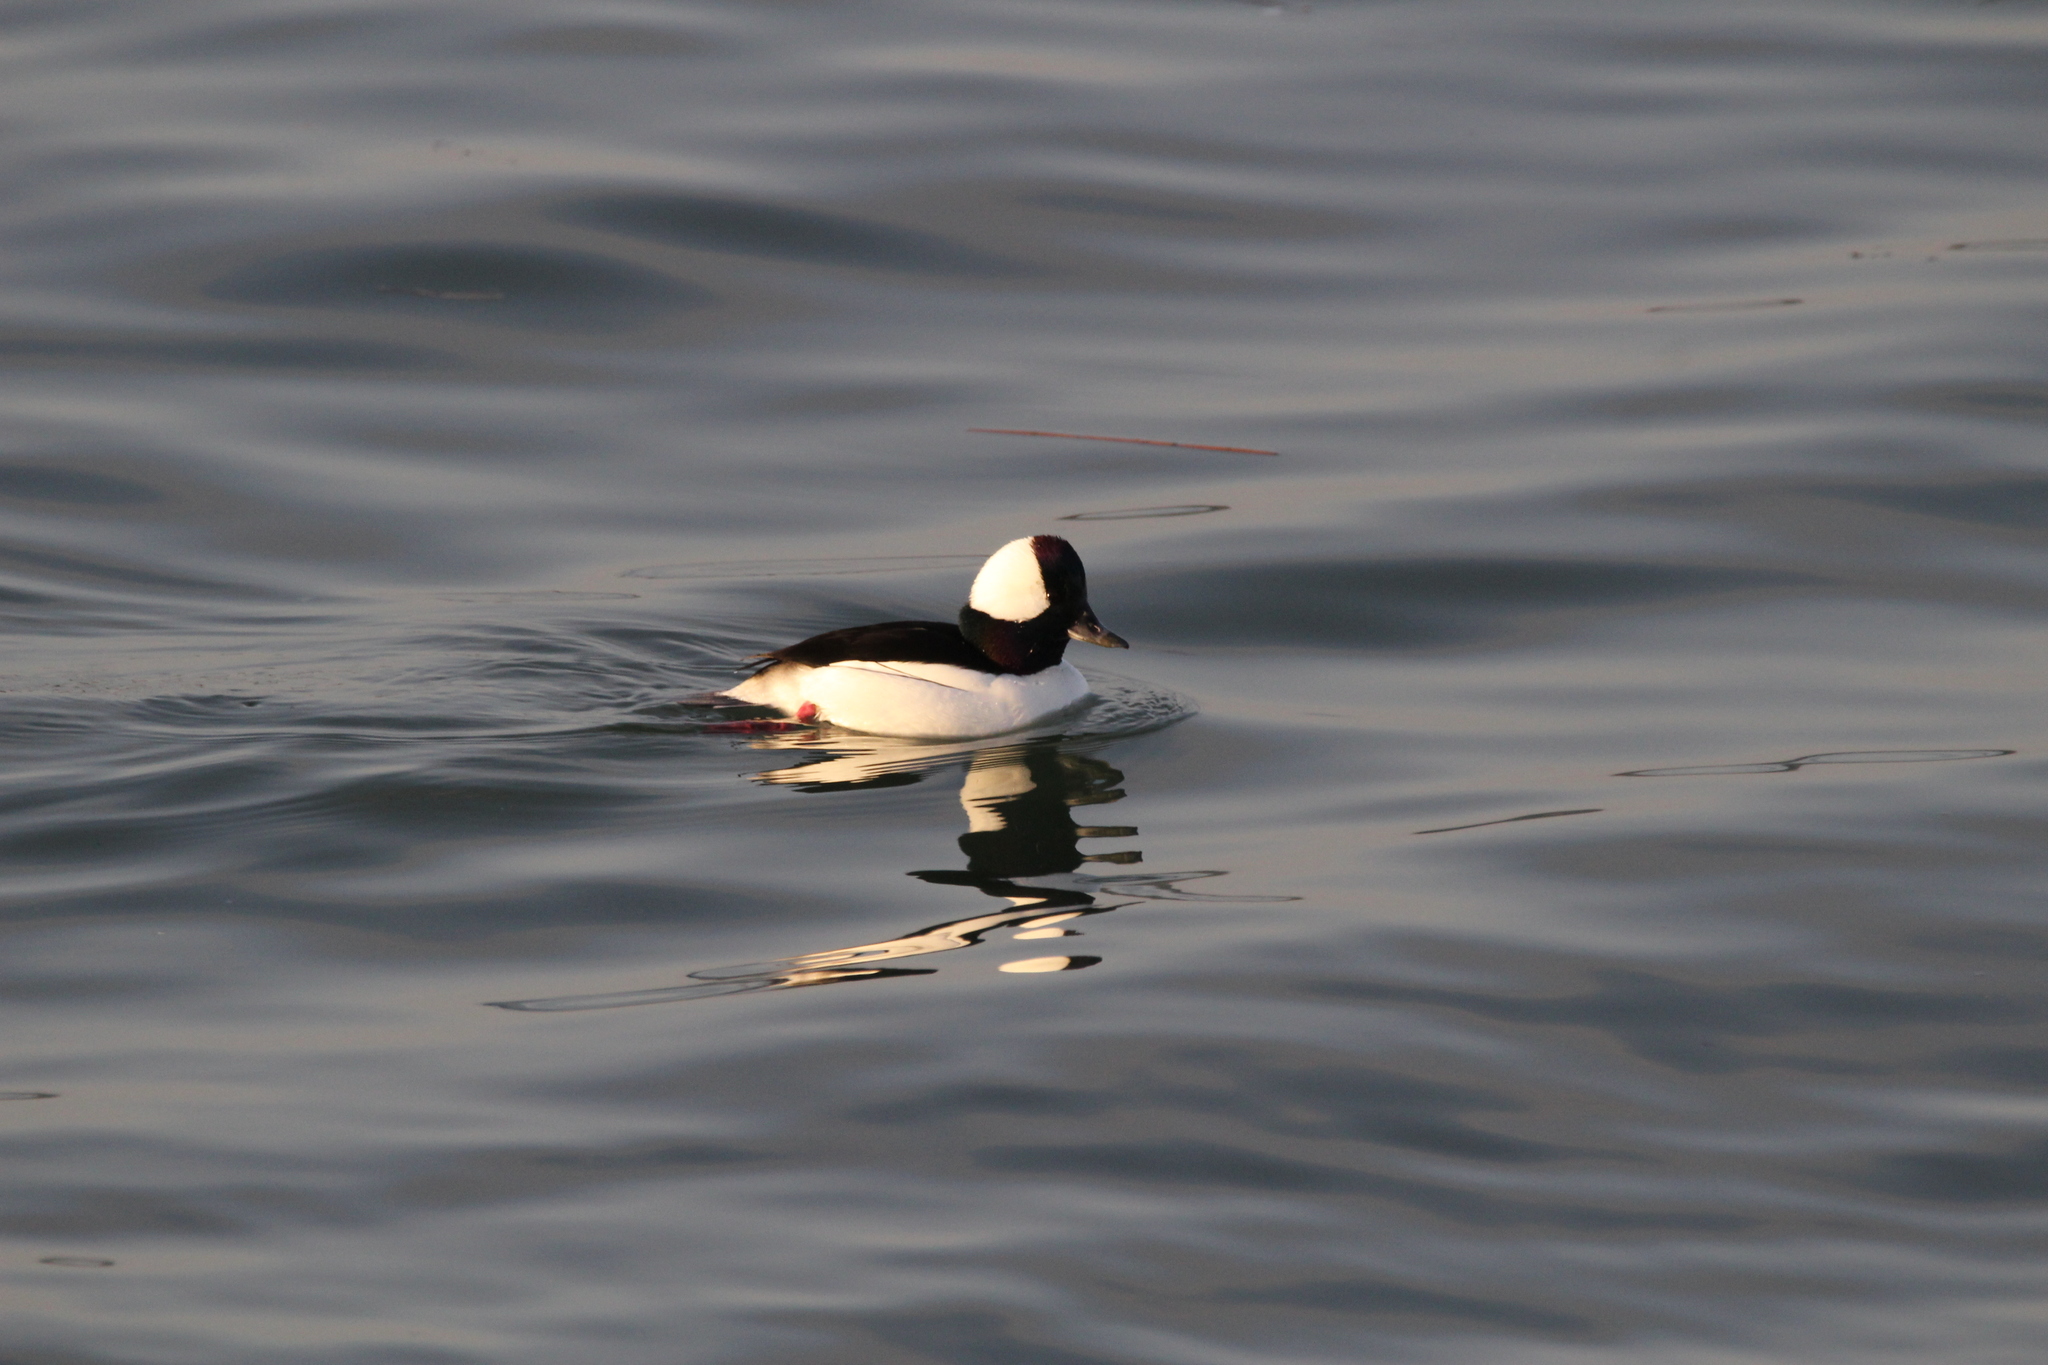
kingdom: Animalia
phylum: Chordata
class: Aves
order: Anseriformes
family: Anatidae
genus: Bucephala
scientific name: Bucephala albeola
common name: Bufflehead
